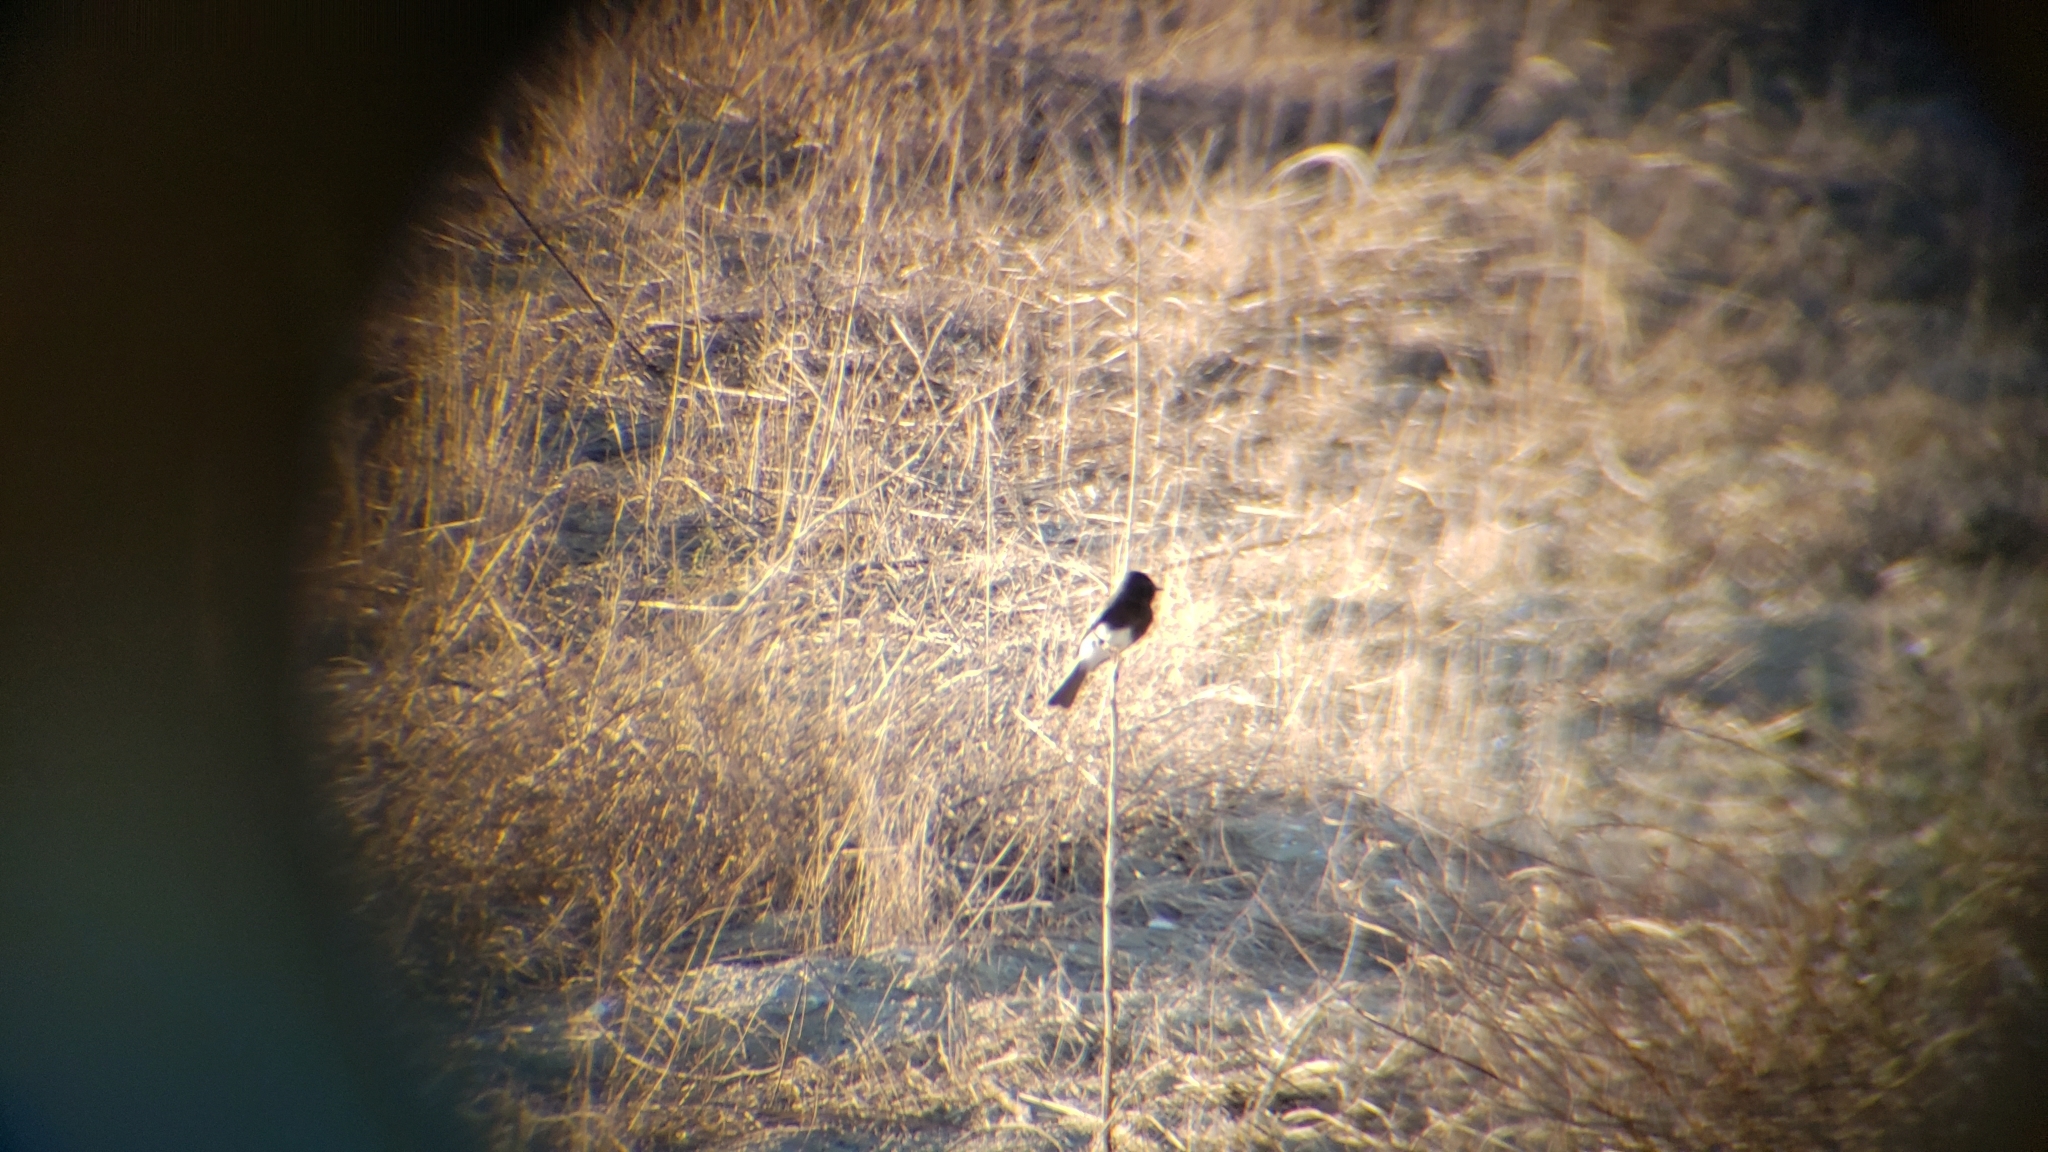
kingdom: Animalia
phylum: Chordata
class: Aves
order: Passeriformes
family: Tyrannidae
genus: Sayornis
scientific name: Sayornis nigricans
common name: Black phoebe
